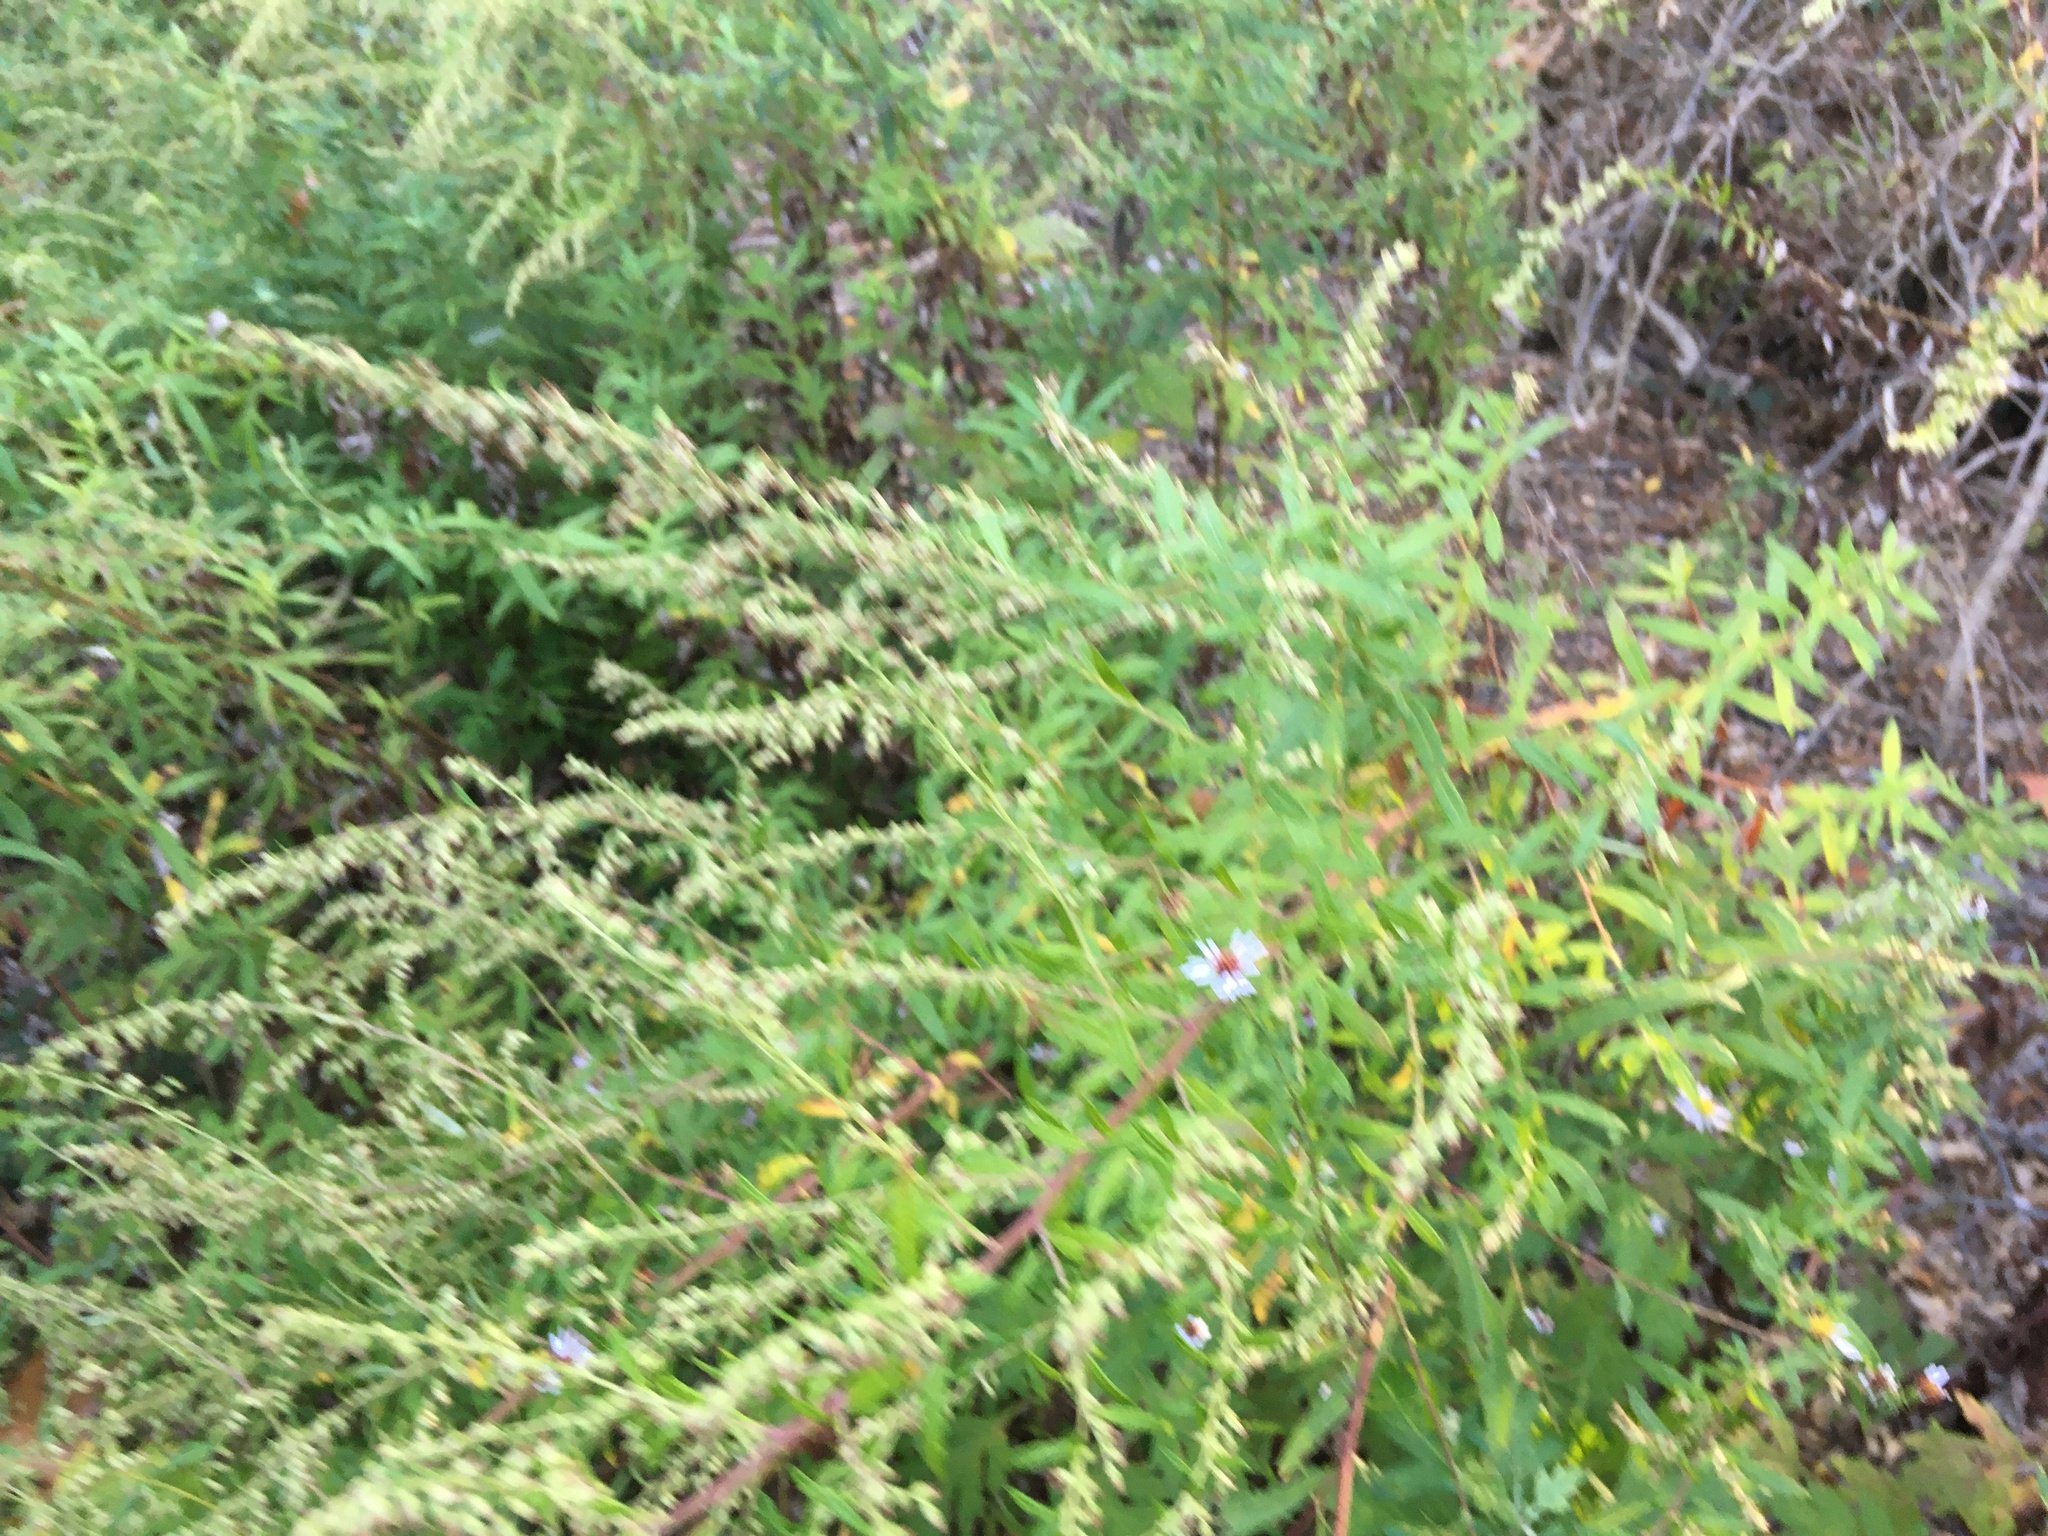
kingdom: Plantae
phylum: Tracheophyta
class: Magnoliopsida
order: Asterales
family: Asteraceae
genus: Artemisia
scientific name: Artemisia vulgaris
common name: Mugwort
